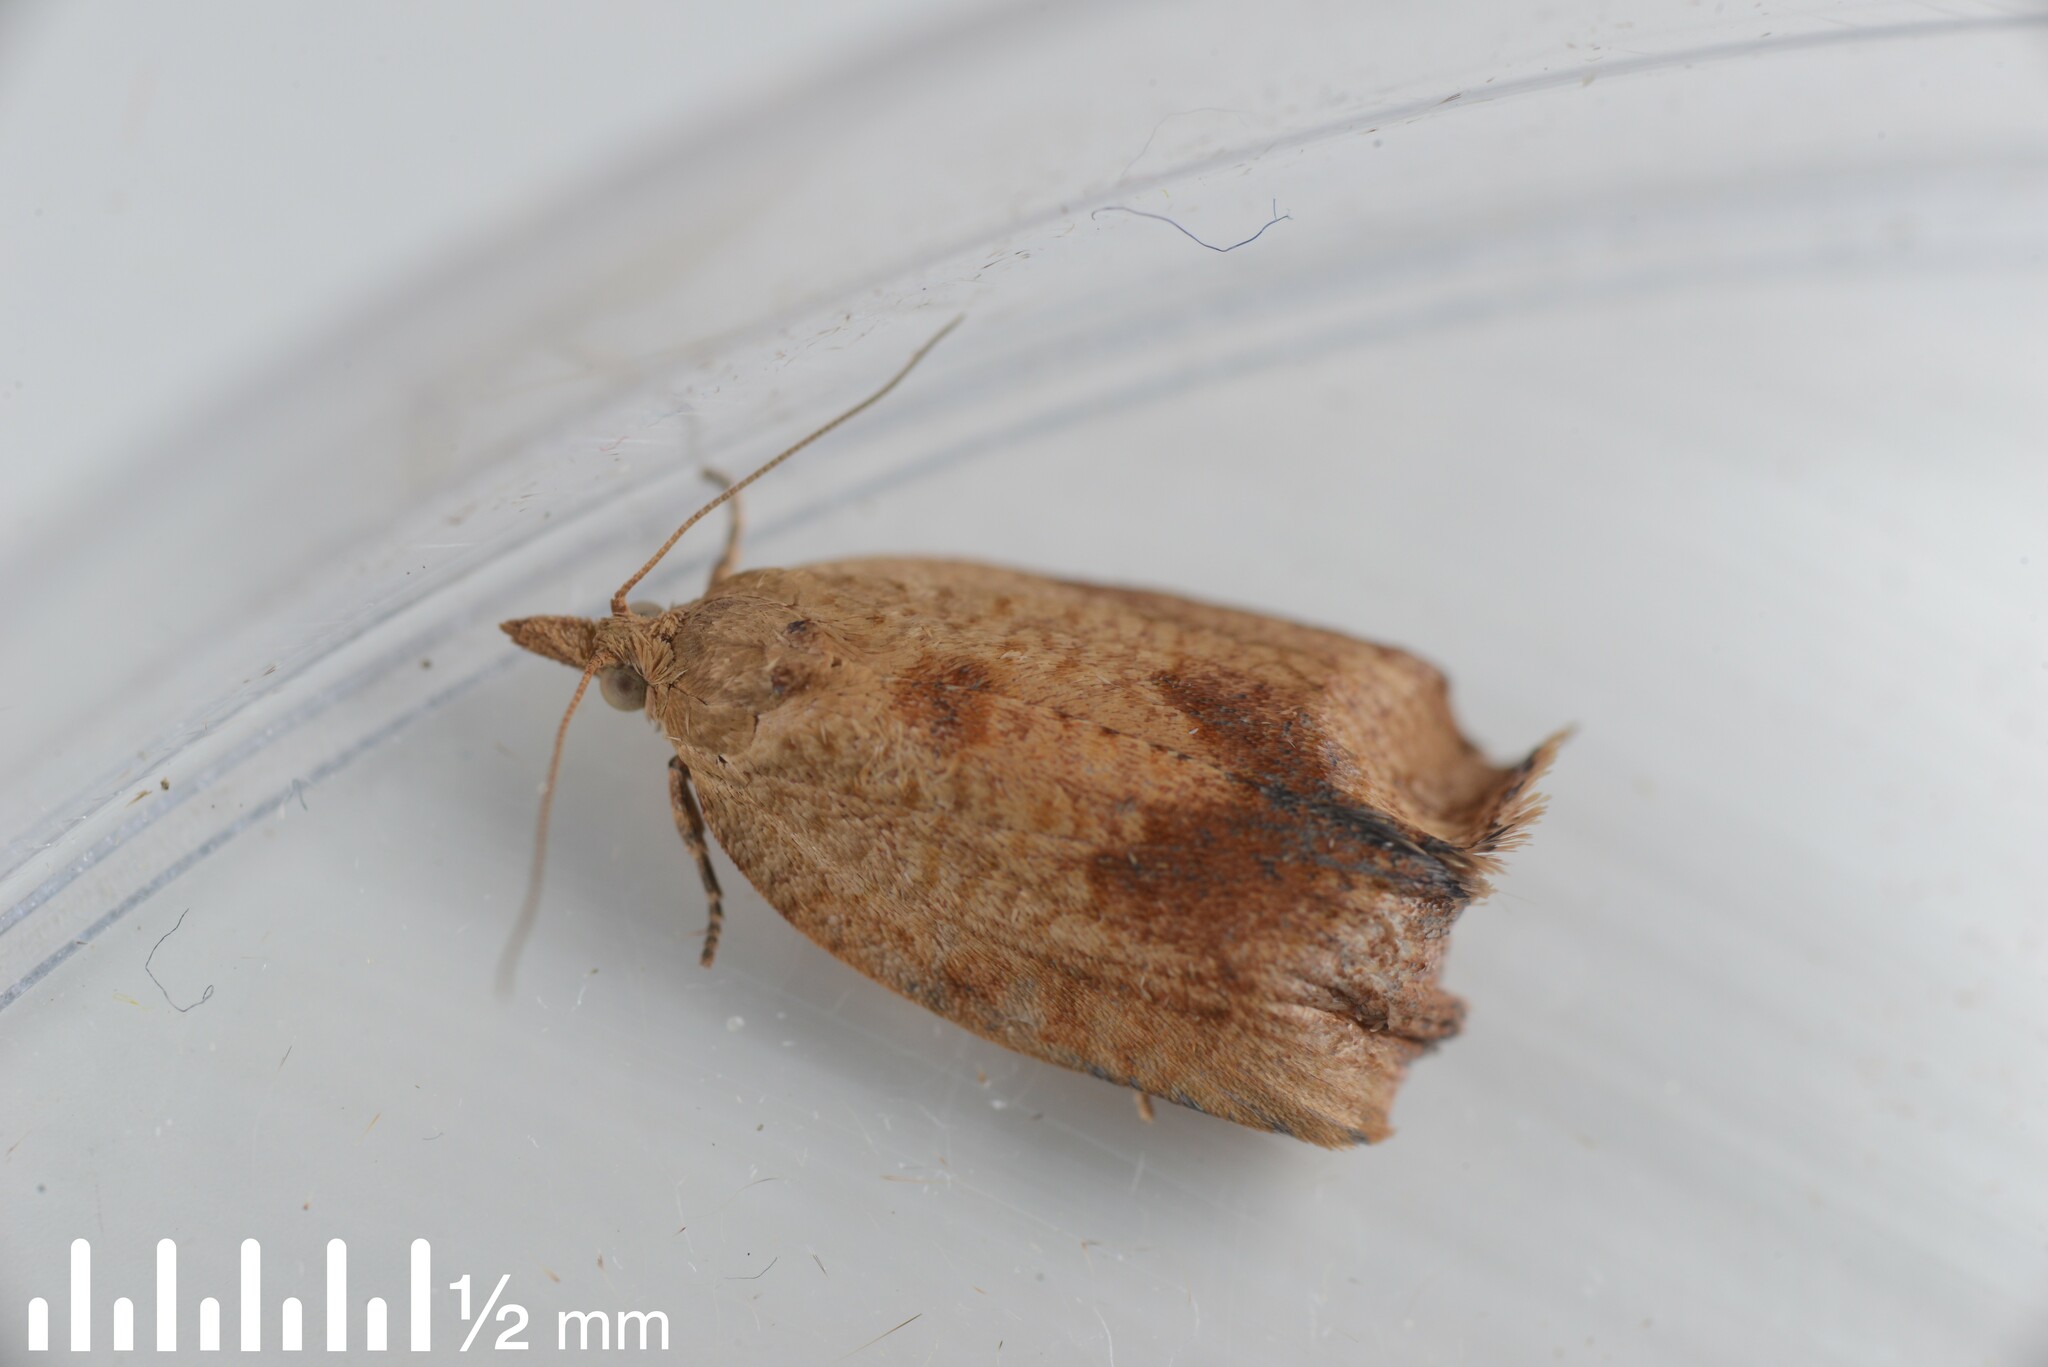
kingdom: Animalia
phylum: Arthropoda
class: Insecta
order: Lepidoptera
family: Tortricidae
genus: Epiphyas
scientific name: Epiphyas postvittana
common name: Light brown apple moth
